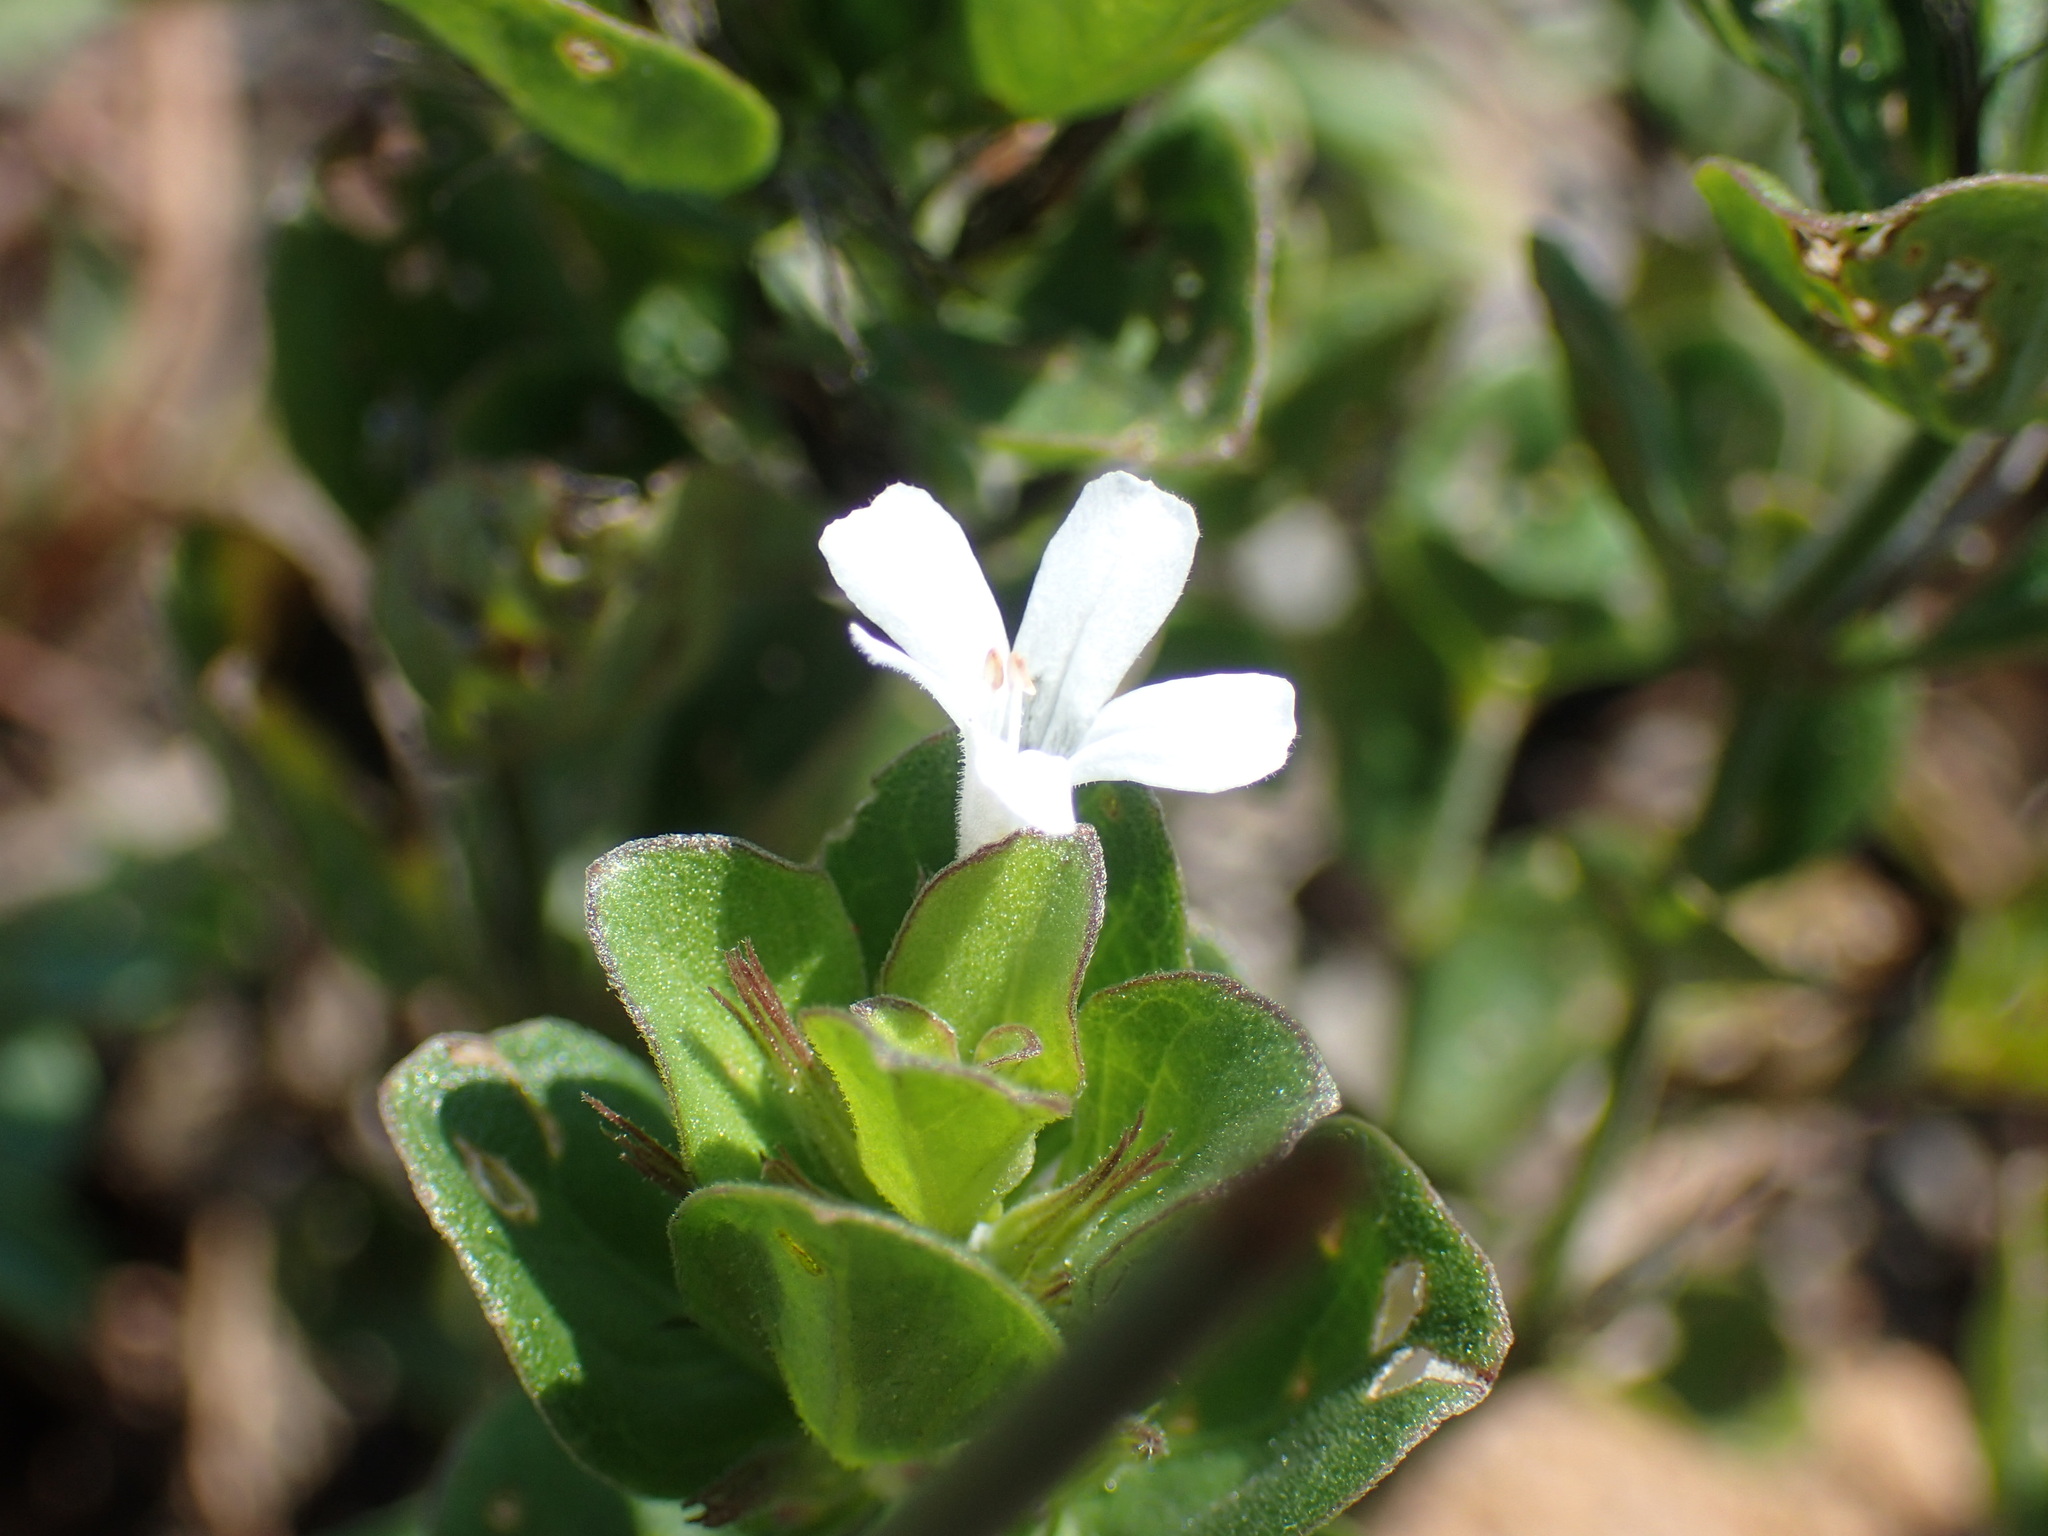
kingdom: Plantae
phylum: Tracheophyta
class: Magnoliopsida
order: Lamiales
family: Acanthaceae
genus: Dyschoriste
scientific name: Dyschoriste radicans
